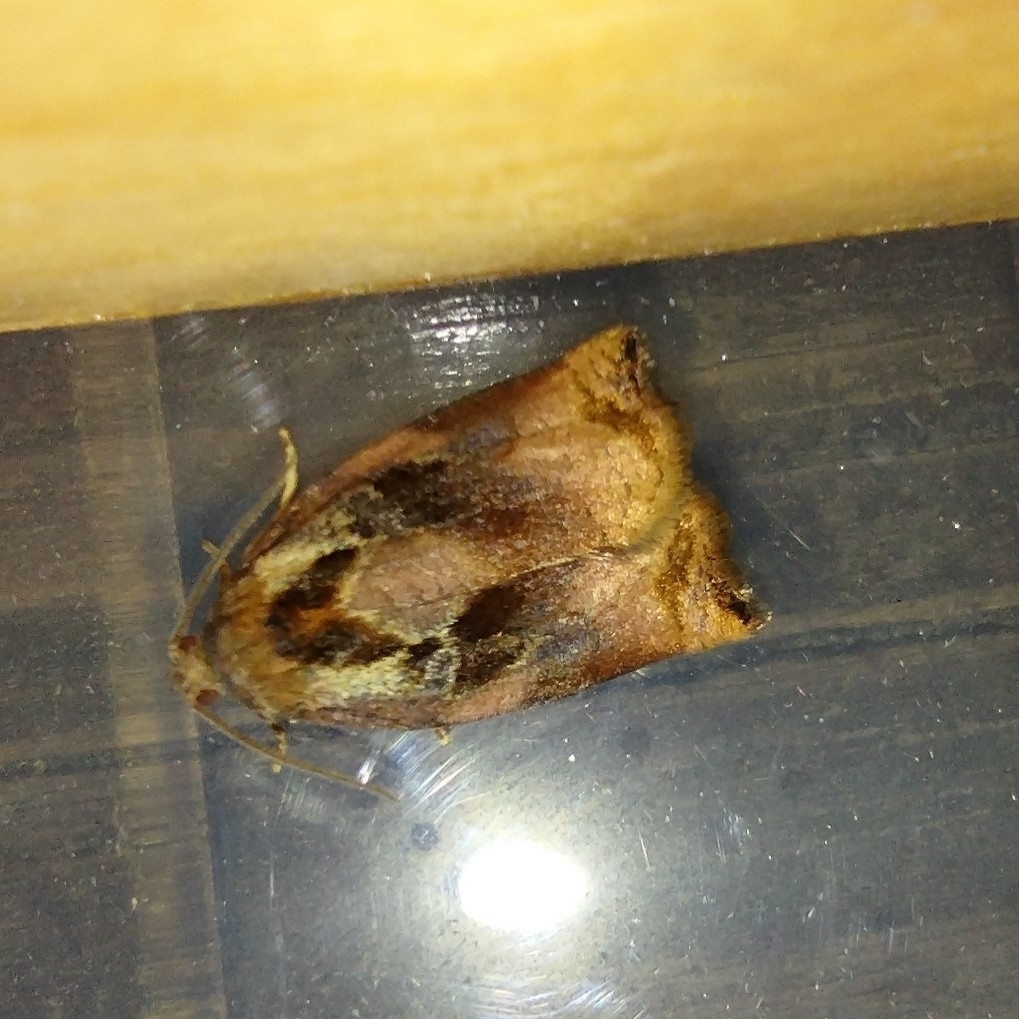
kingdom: Animalia
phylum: Arthropoda
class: Insecta
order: Lepidoptera
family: Tortricidae
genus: Archips
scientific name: Archips podana
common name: Large fruit-tree tortrix
